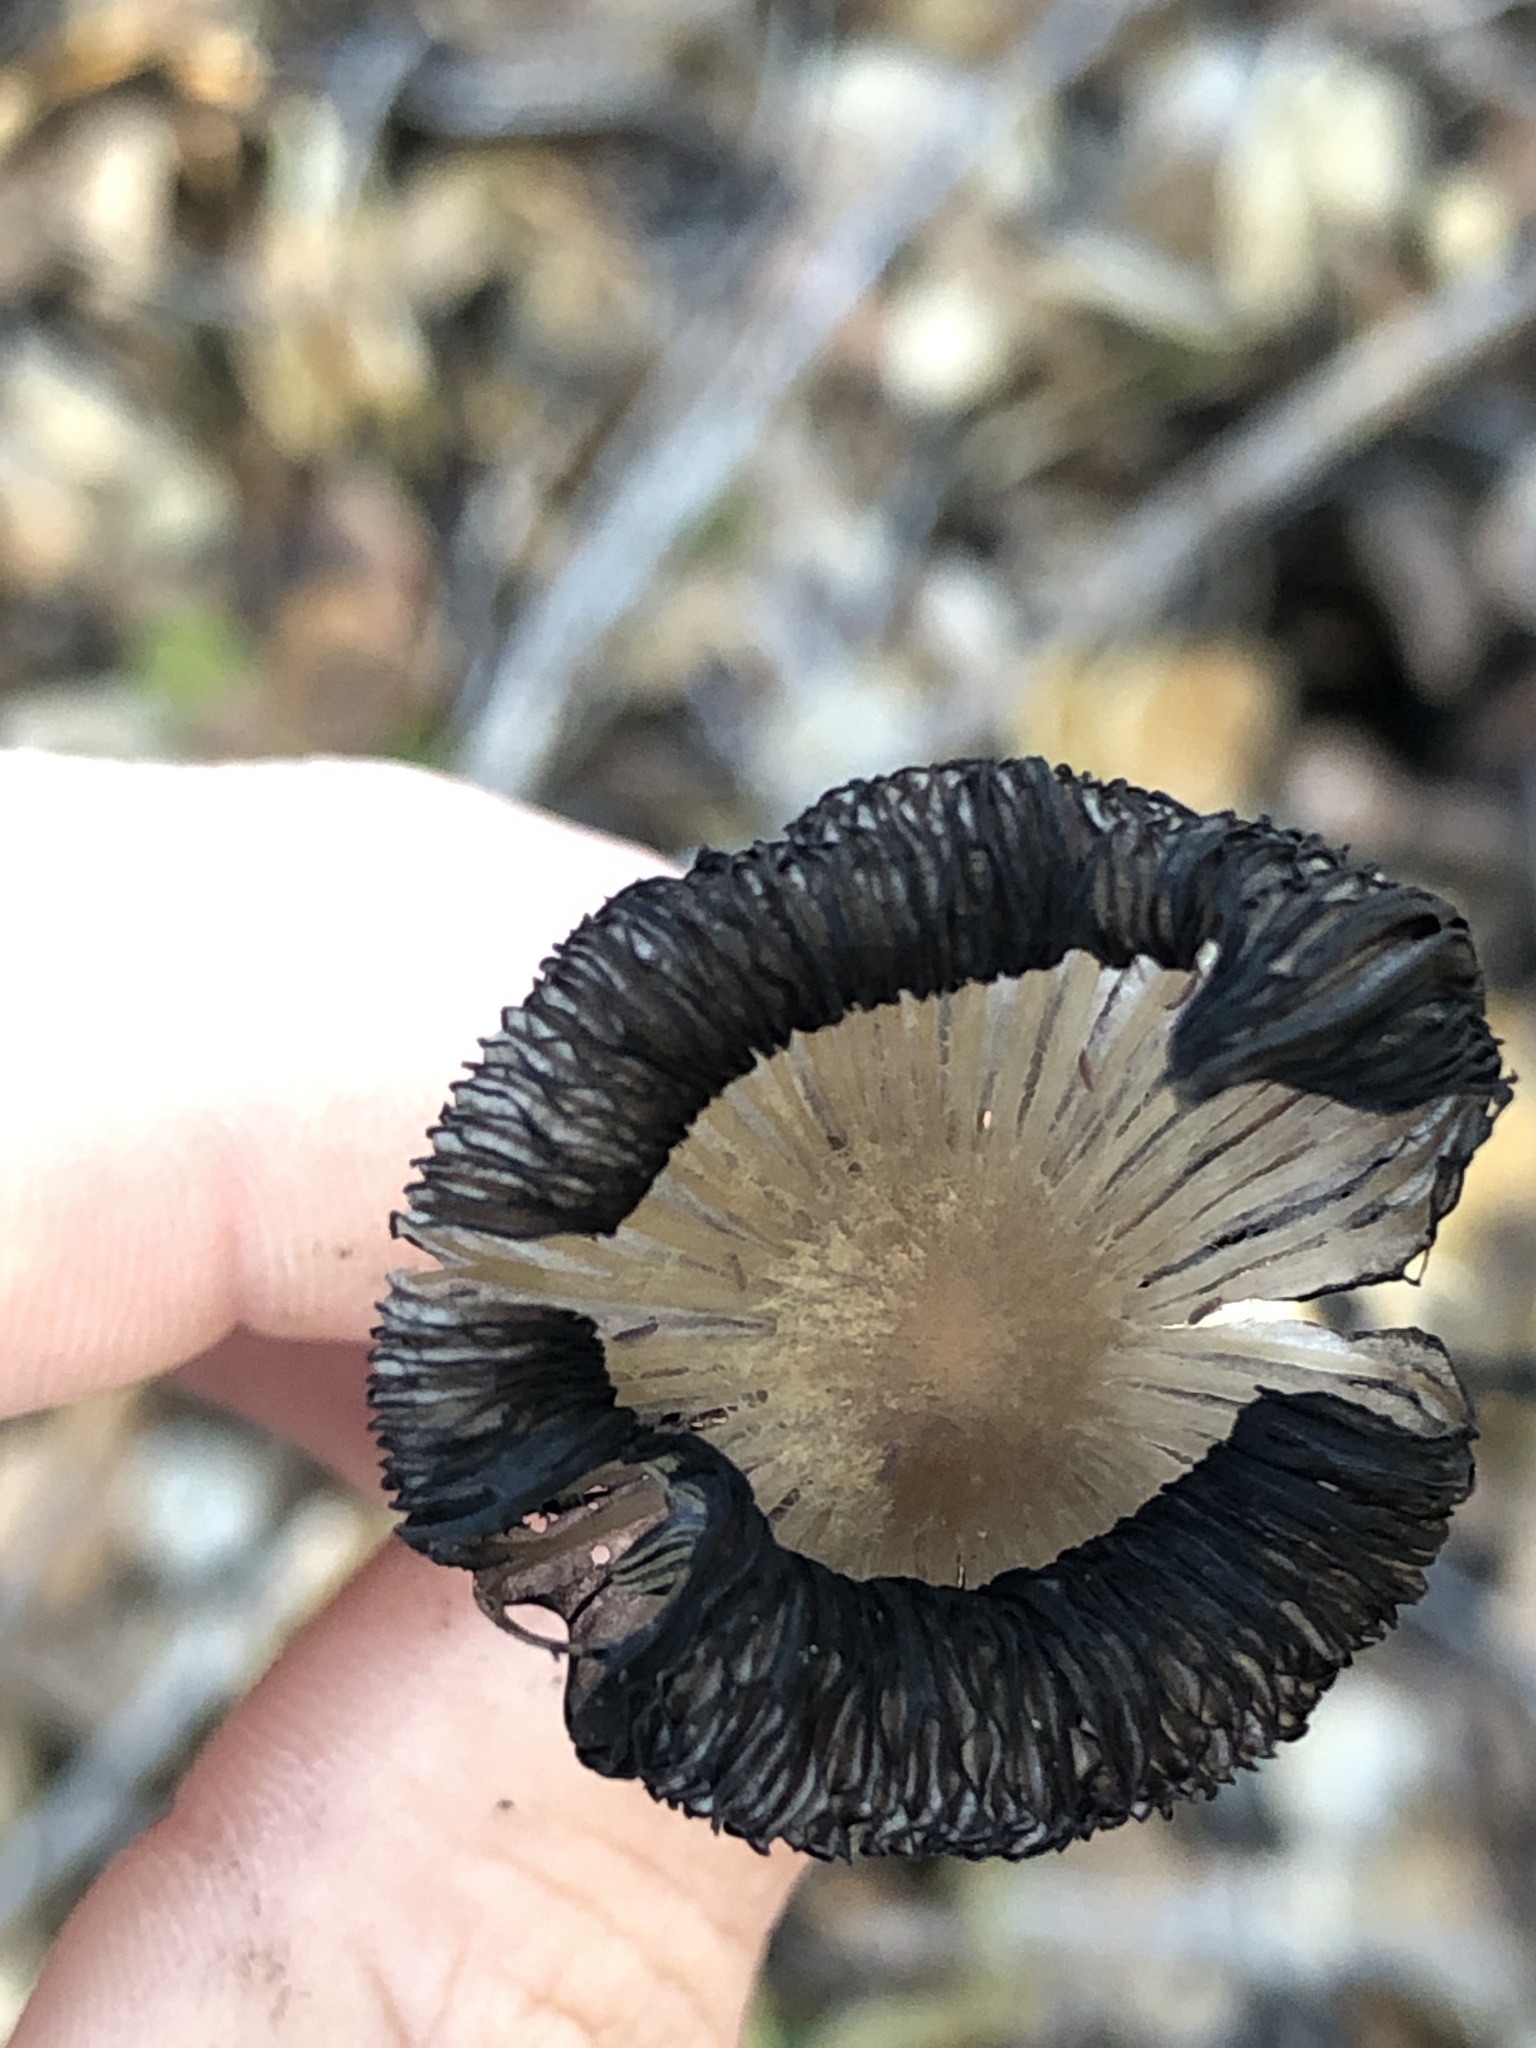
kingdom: Fungi
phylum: Basidiomycota
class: Agaricomycetes
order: Agaricales
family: Psathyrellaceae
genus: Coprinopsis
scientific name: Coprinopsis lagopus
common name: Hare'sfoot inkcap
